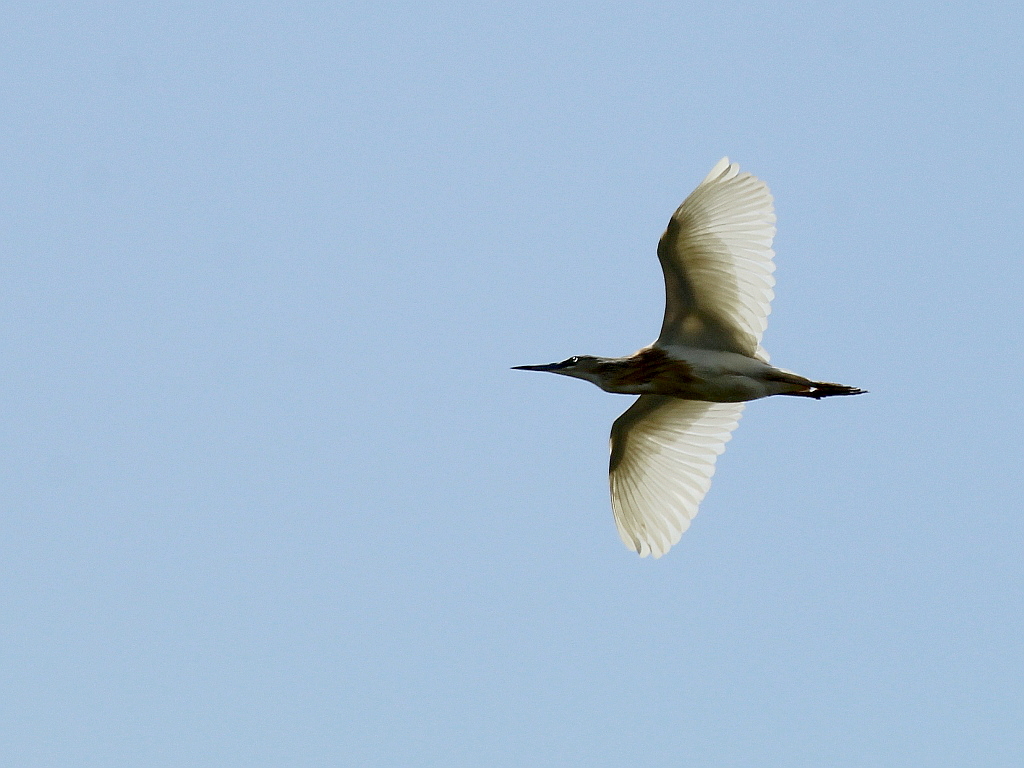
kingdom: Animalia
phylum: Chordata
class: Aves
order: Pelecaniformes
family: Ardeidae
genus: Ardeola
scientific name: Ardeola ralloides
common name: Squacco heron
